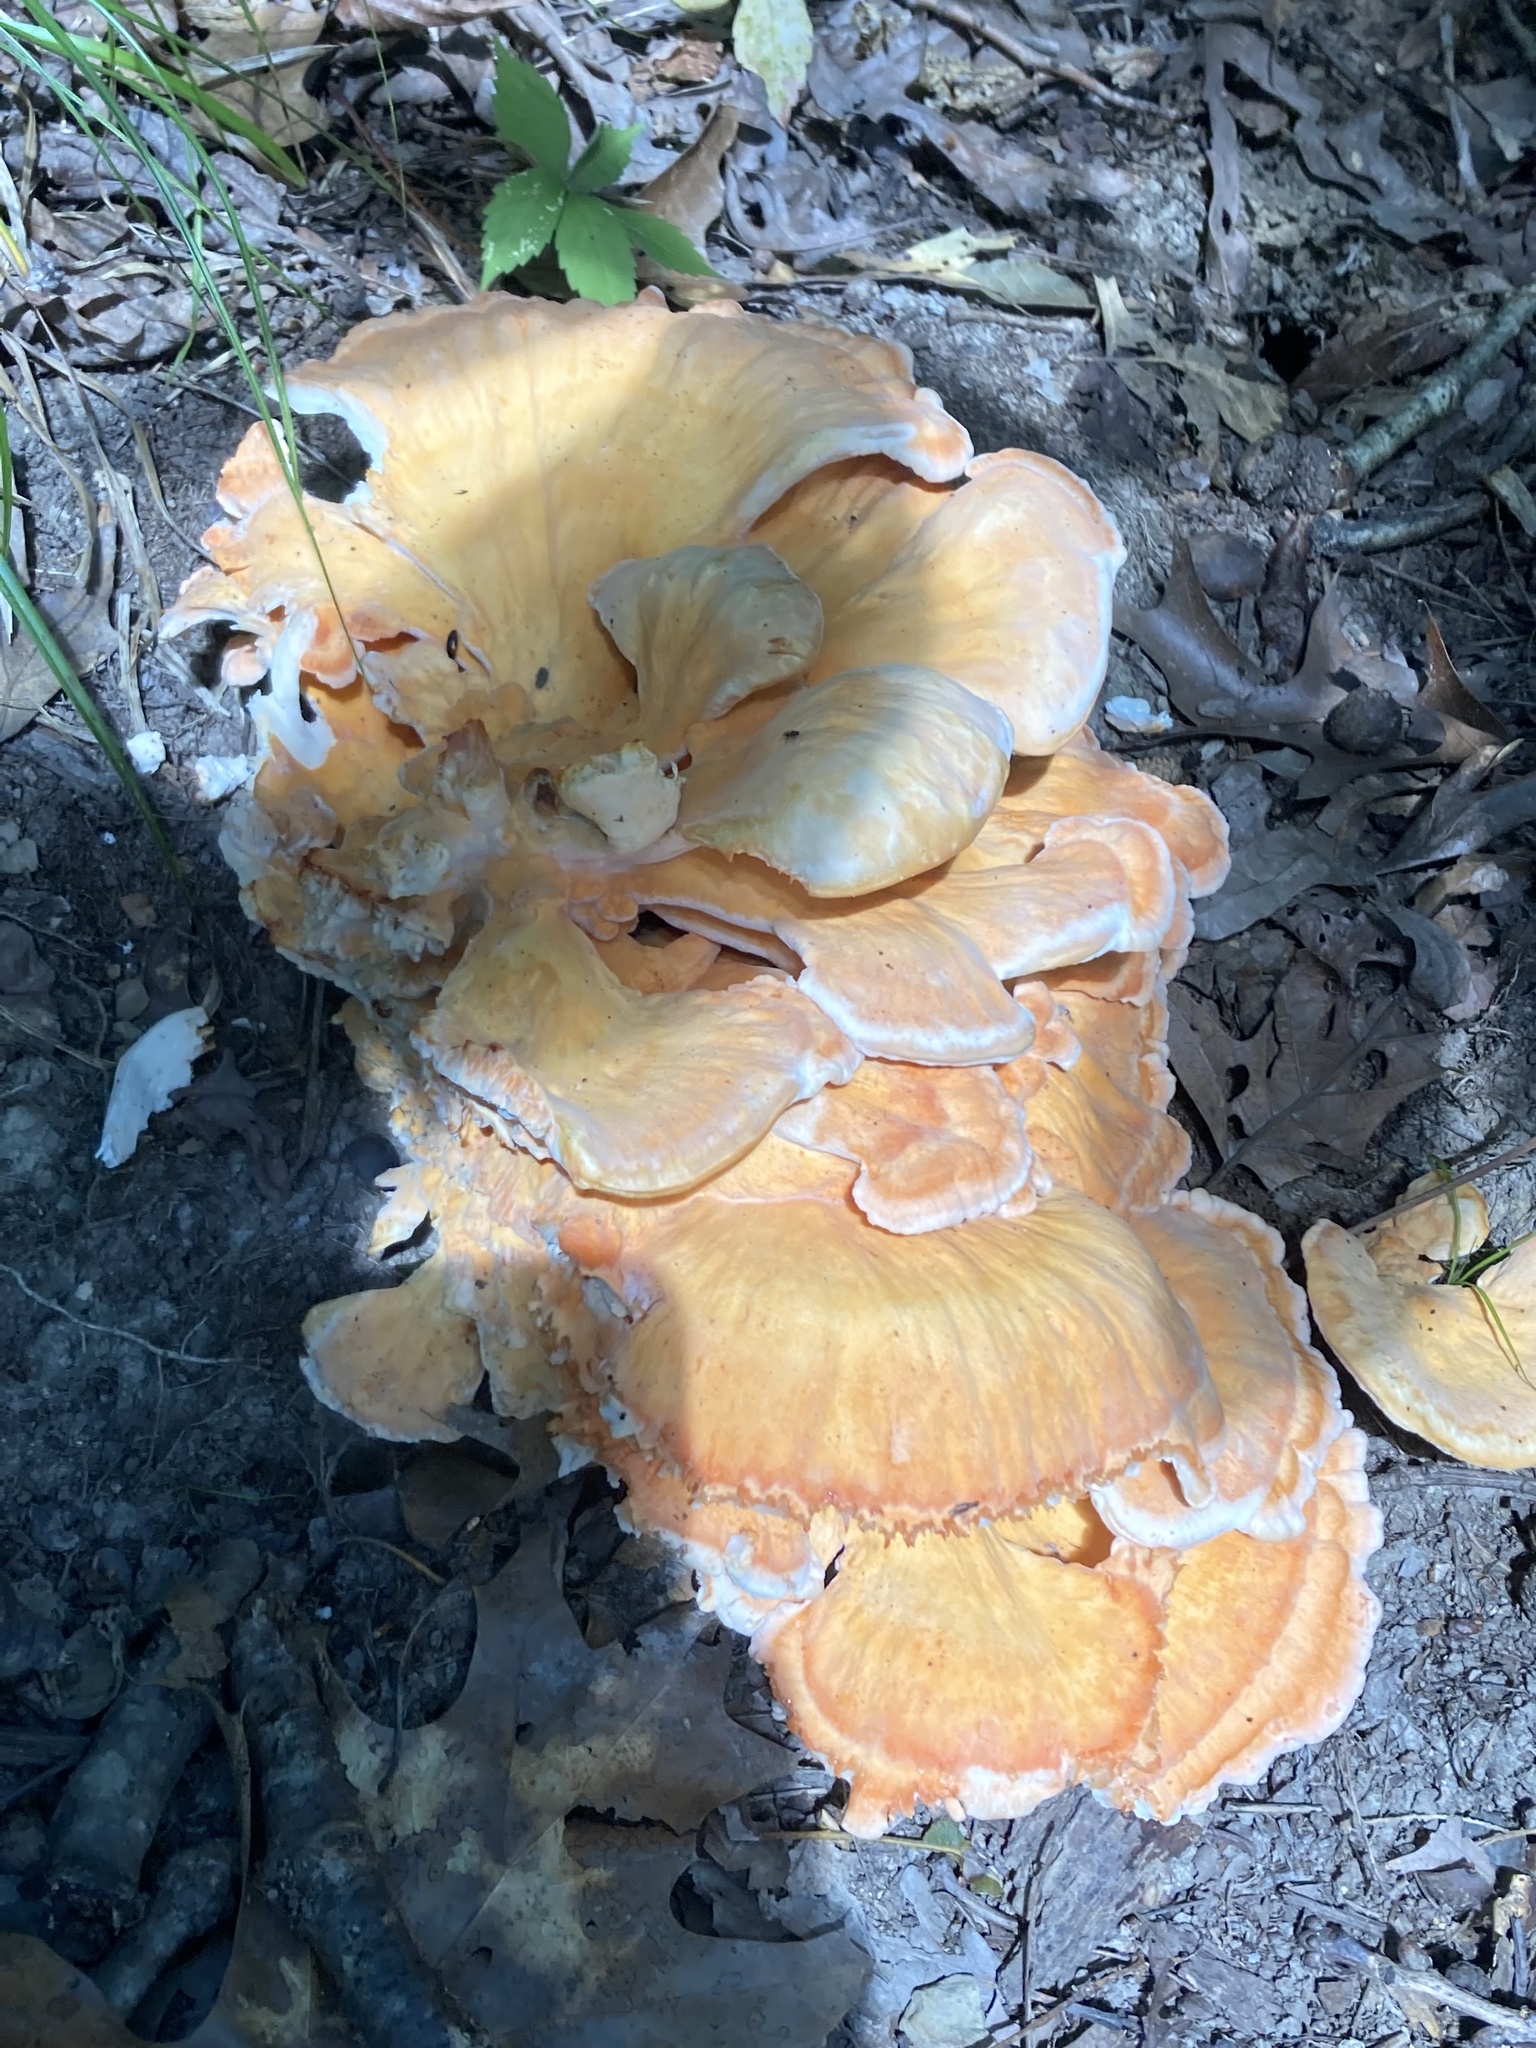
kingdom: Fungi
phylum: Basidiomycota
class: Agaricomycetes
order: Polyporales
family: Laetiporaceae
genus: Laetiporus
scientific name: Laetiporus sulphureus
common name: Chicken of the woods
